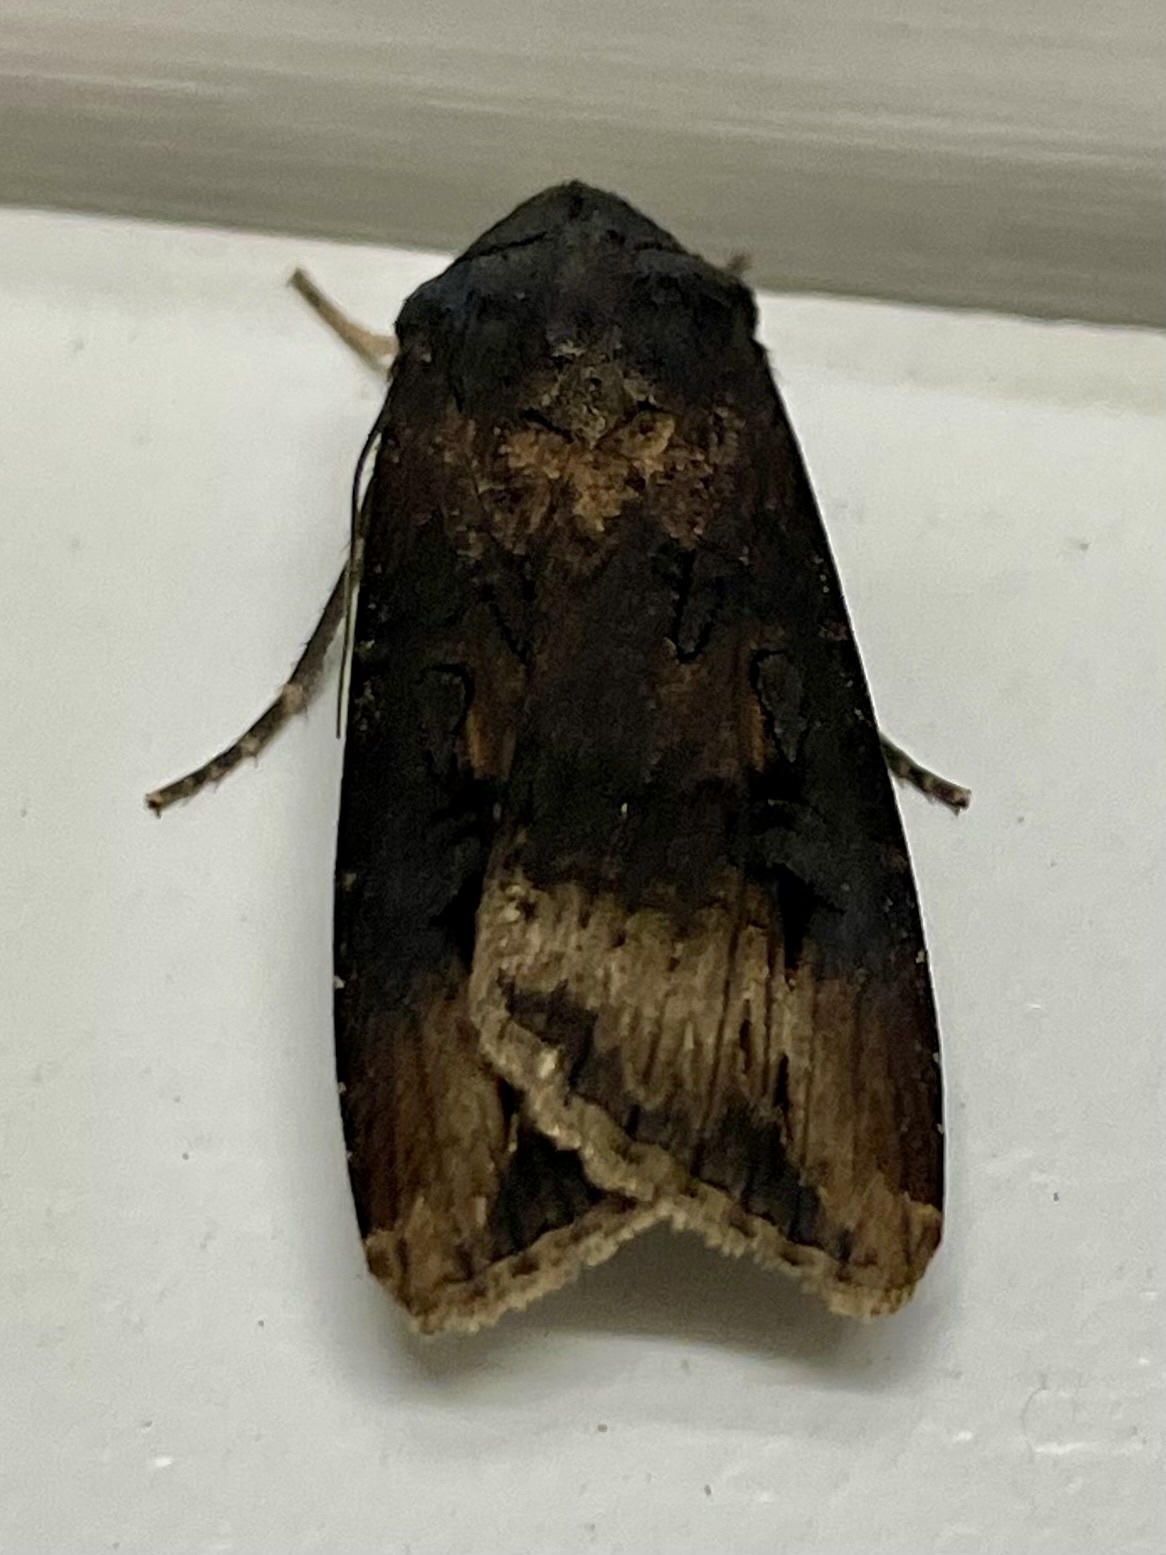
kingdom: Animalia
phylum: Arthropoda
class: Insecta
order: Lepidoptera
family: Noctuidae
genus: Agrotis
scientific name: Agrotis ipsilon
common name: Dark sword-grass
